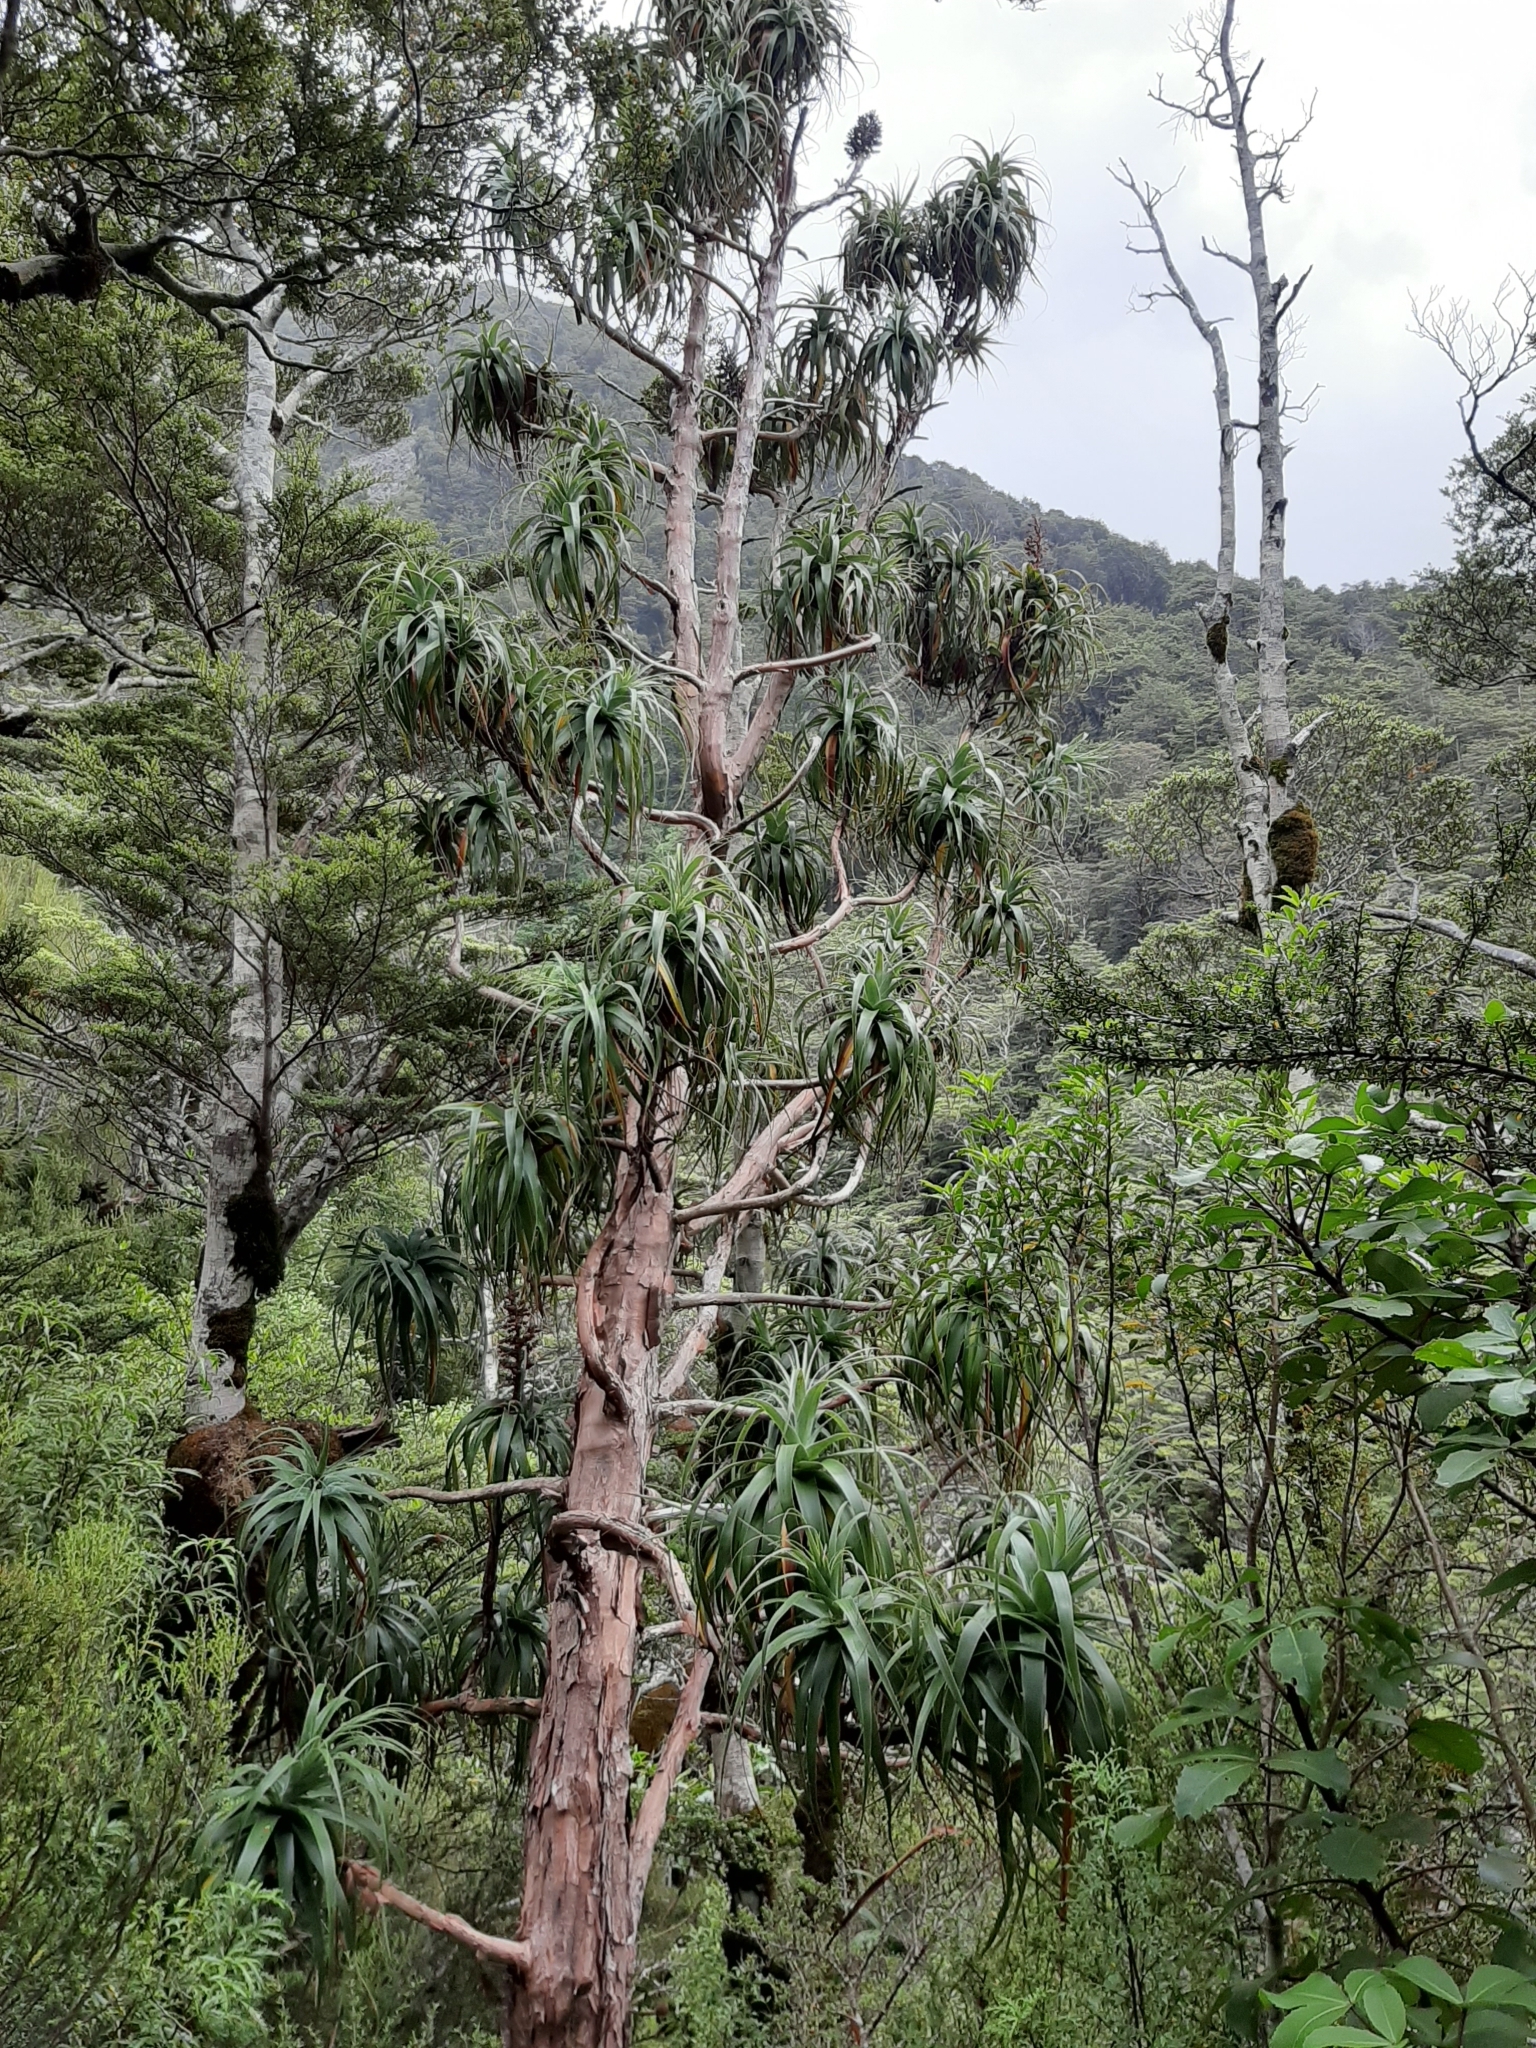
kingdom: Plantae
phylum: Tracheophyta
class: Magnoliopsida
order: Ericales
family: Ericaceae
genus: Dracophyllum
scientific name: Dracophyllum traversii
